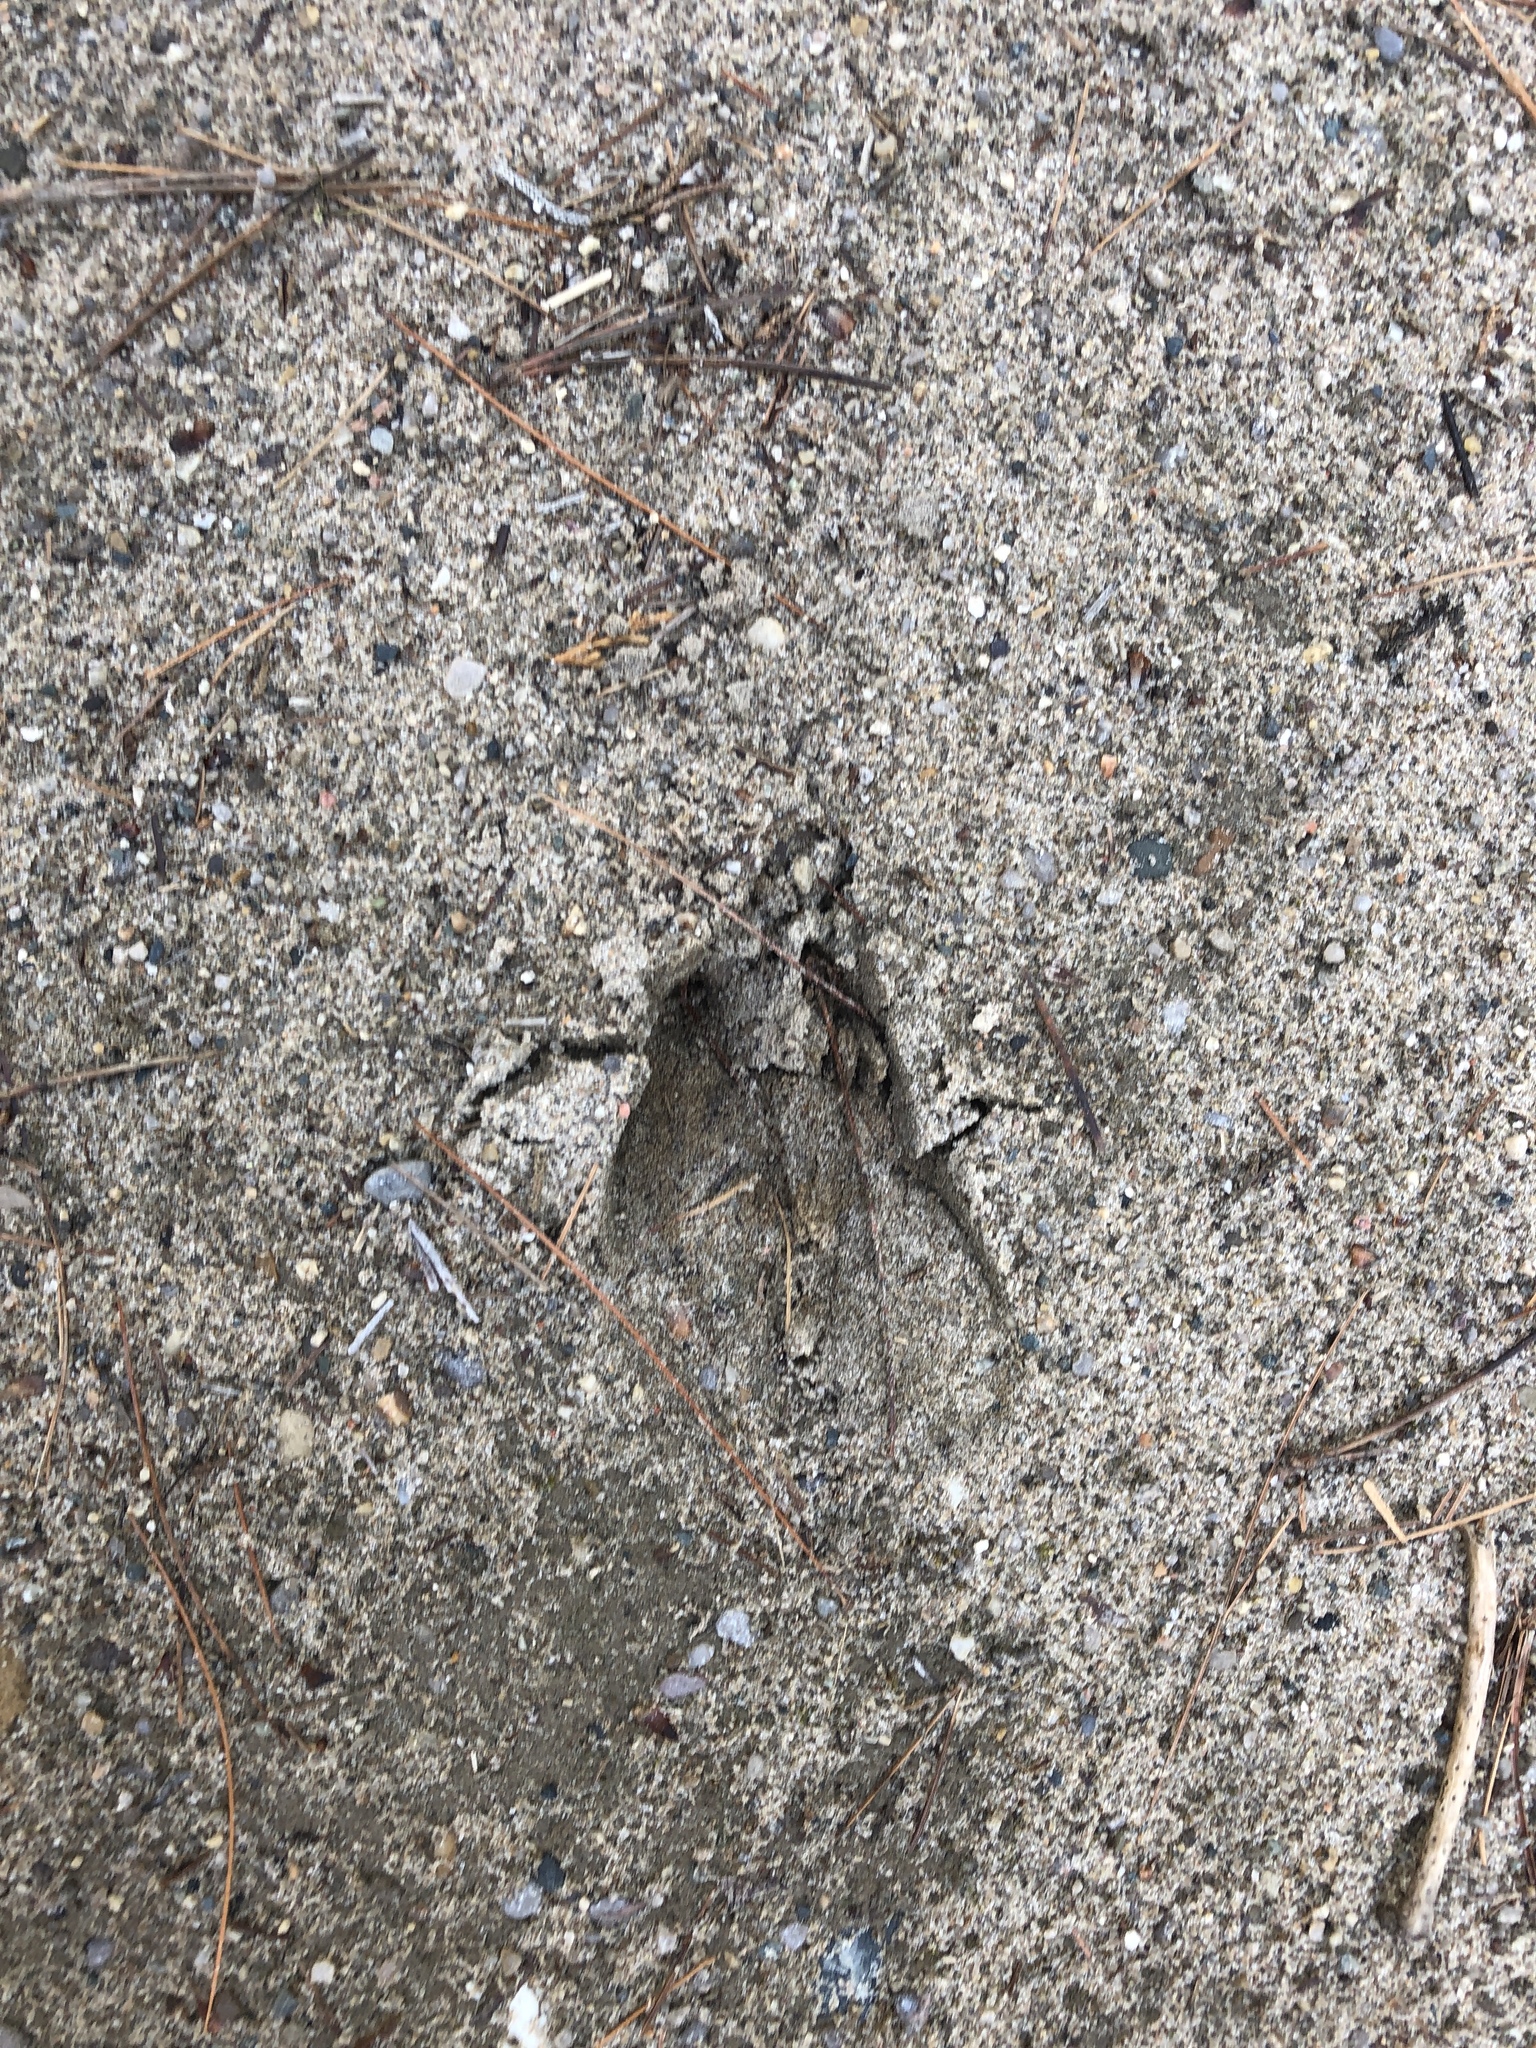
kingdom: Animalia
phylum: Chordata
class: Mammalia
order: Artiodactyla
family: Cervidae
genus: Odocoileus
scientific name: Odocoileus virginianus
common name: White-tailed deer
